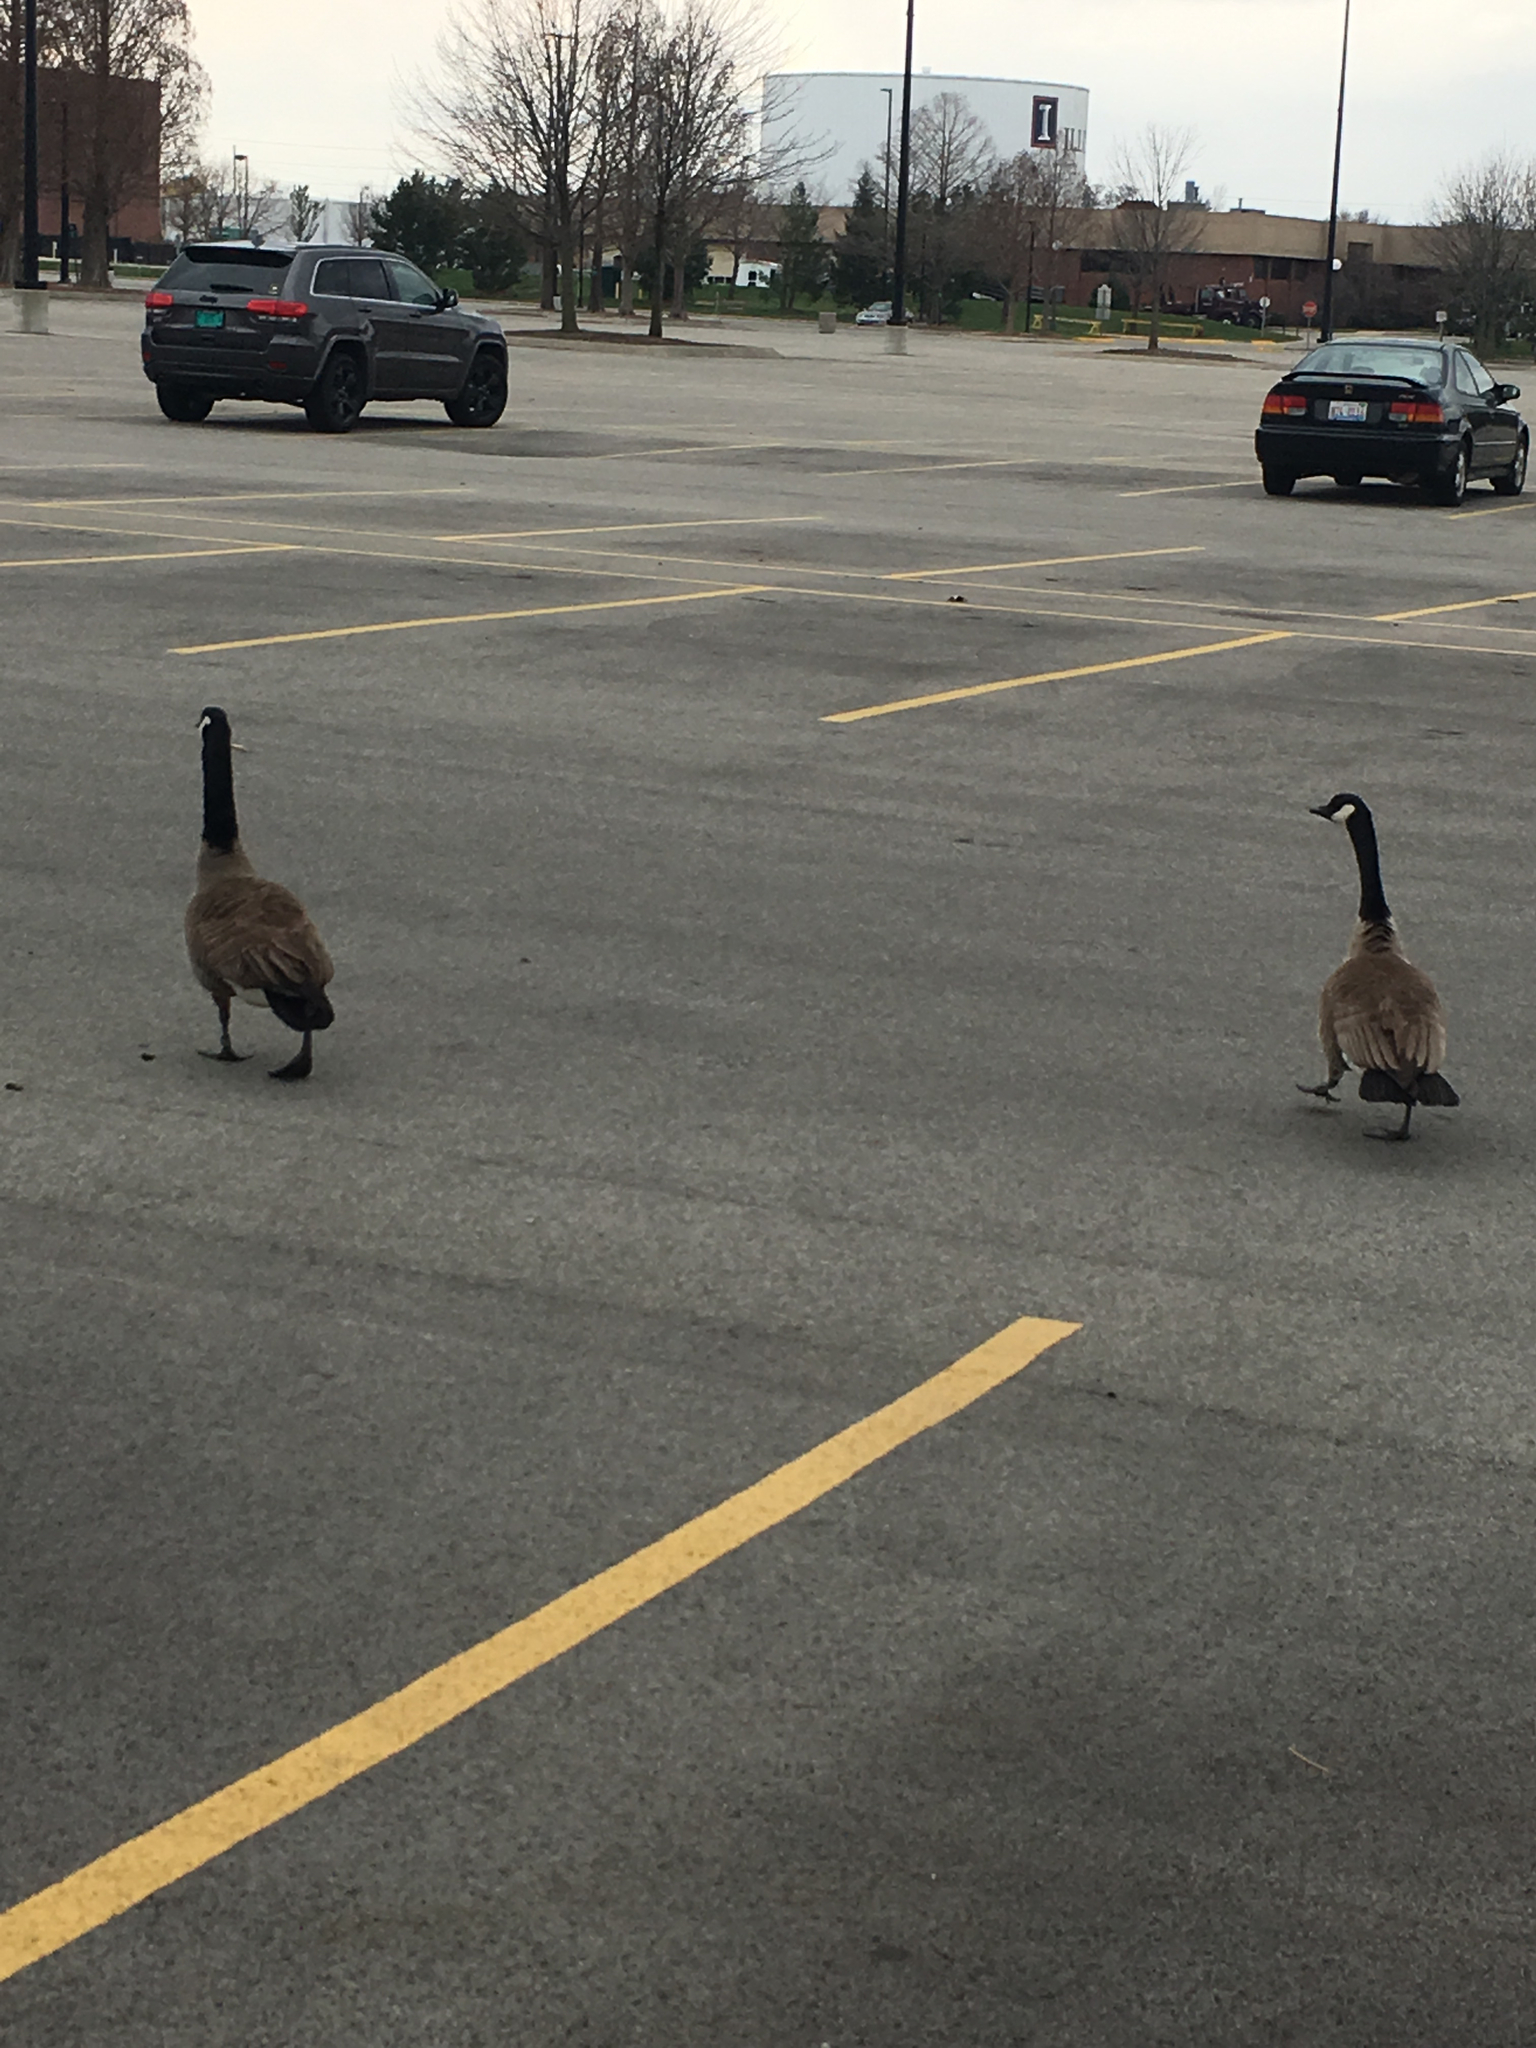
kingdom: Animalia
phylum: Chordata
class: Aves
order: Anseriformes
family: Anatidae
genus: Branta
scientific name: Branta canadensis
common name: Canada goose
